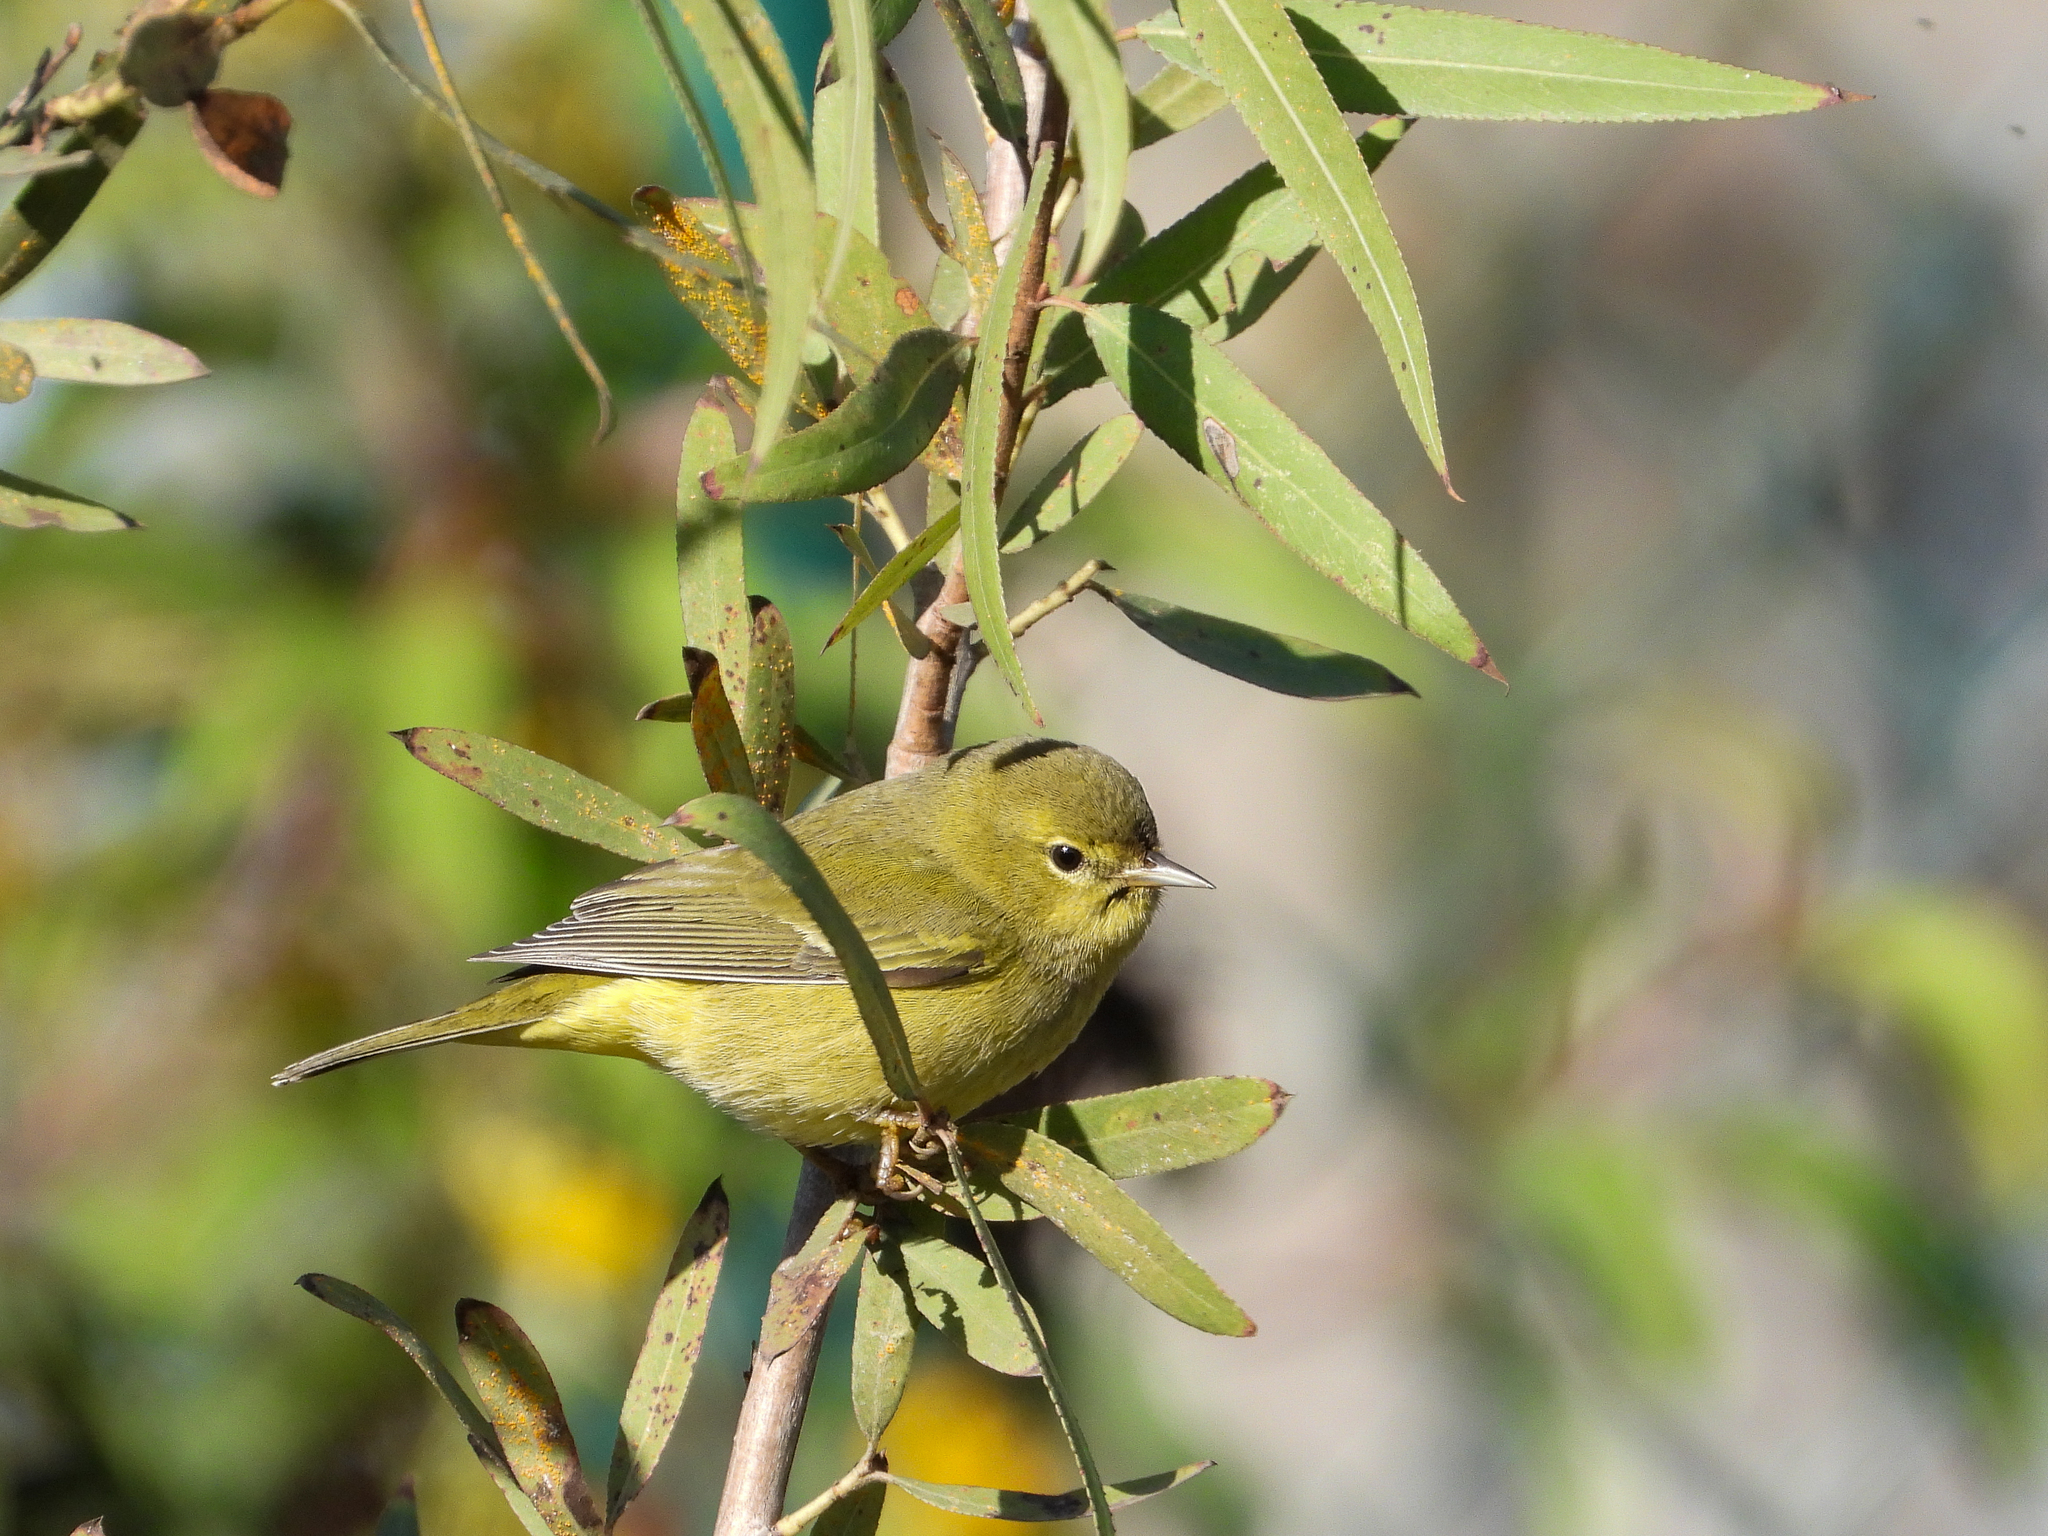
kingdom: Animalia
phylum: Chordata
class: Aves
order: Passeriformes
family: Parulidae
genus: Leiothlypis
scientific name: Leiothlypis celata
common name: Orange-crowned warbler
